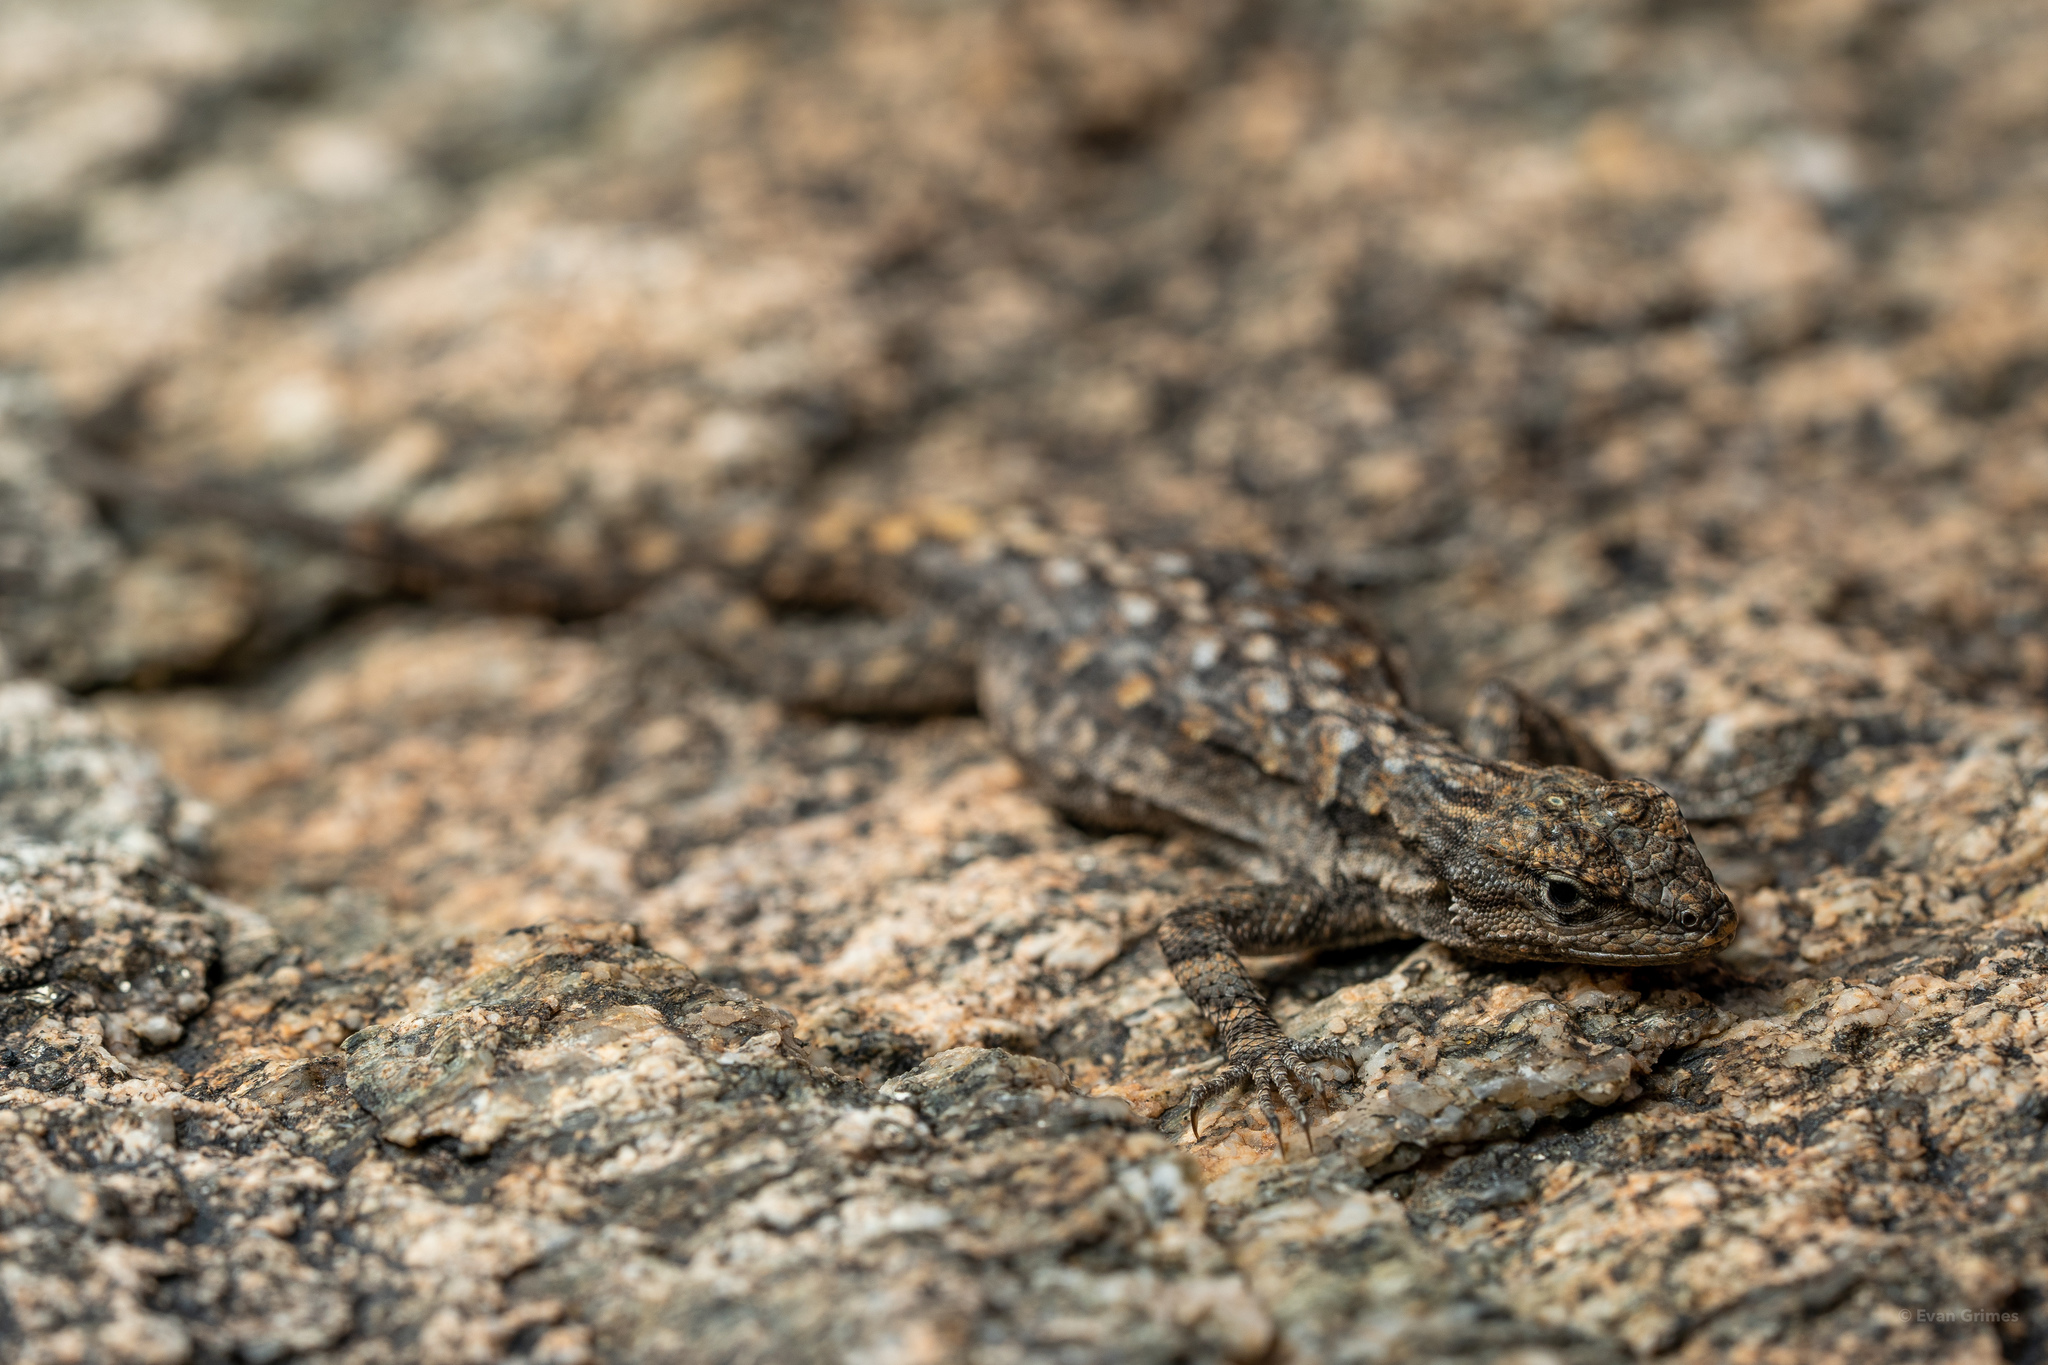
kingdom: Animalia
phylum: Chordata
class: Squamata
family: Phrynosomatidae
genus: Urosaurus
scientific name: Urosaurus ornatus
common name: Ornate tree lizard
